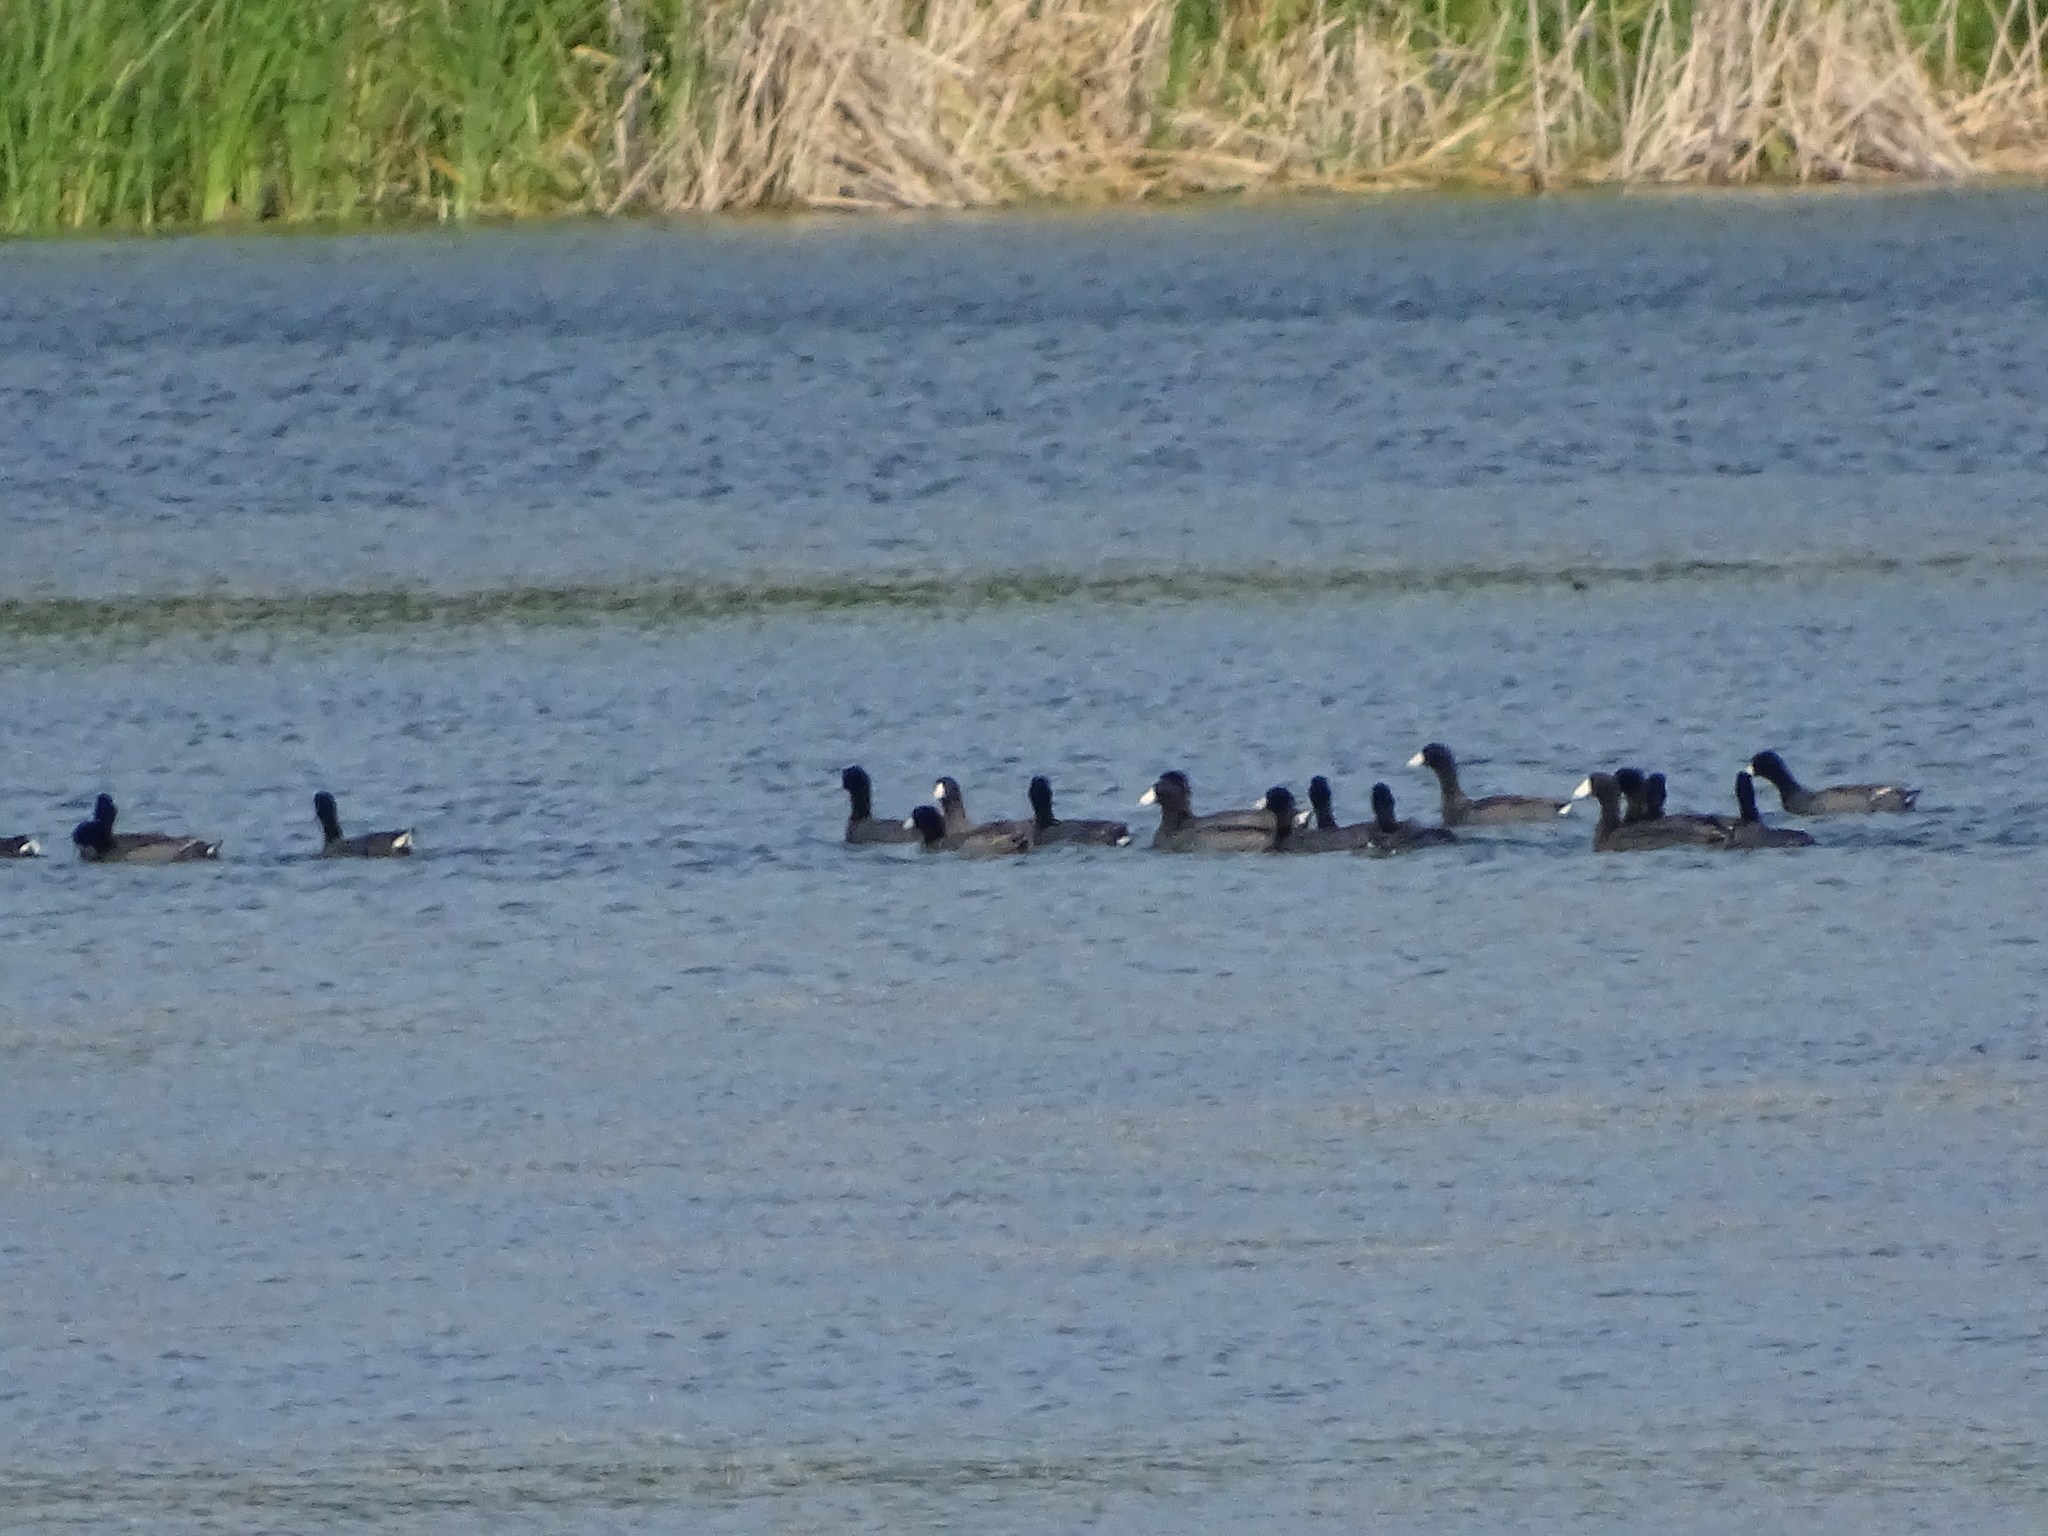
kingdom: Animalia
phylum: Chordata
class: Aves
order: Gruiformes
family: Rallidae
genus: Fulica
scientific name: Fulica americana
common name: American coot
